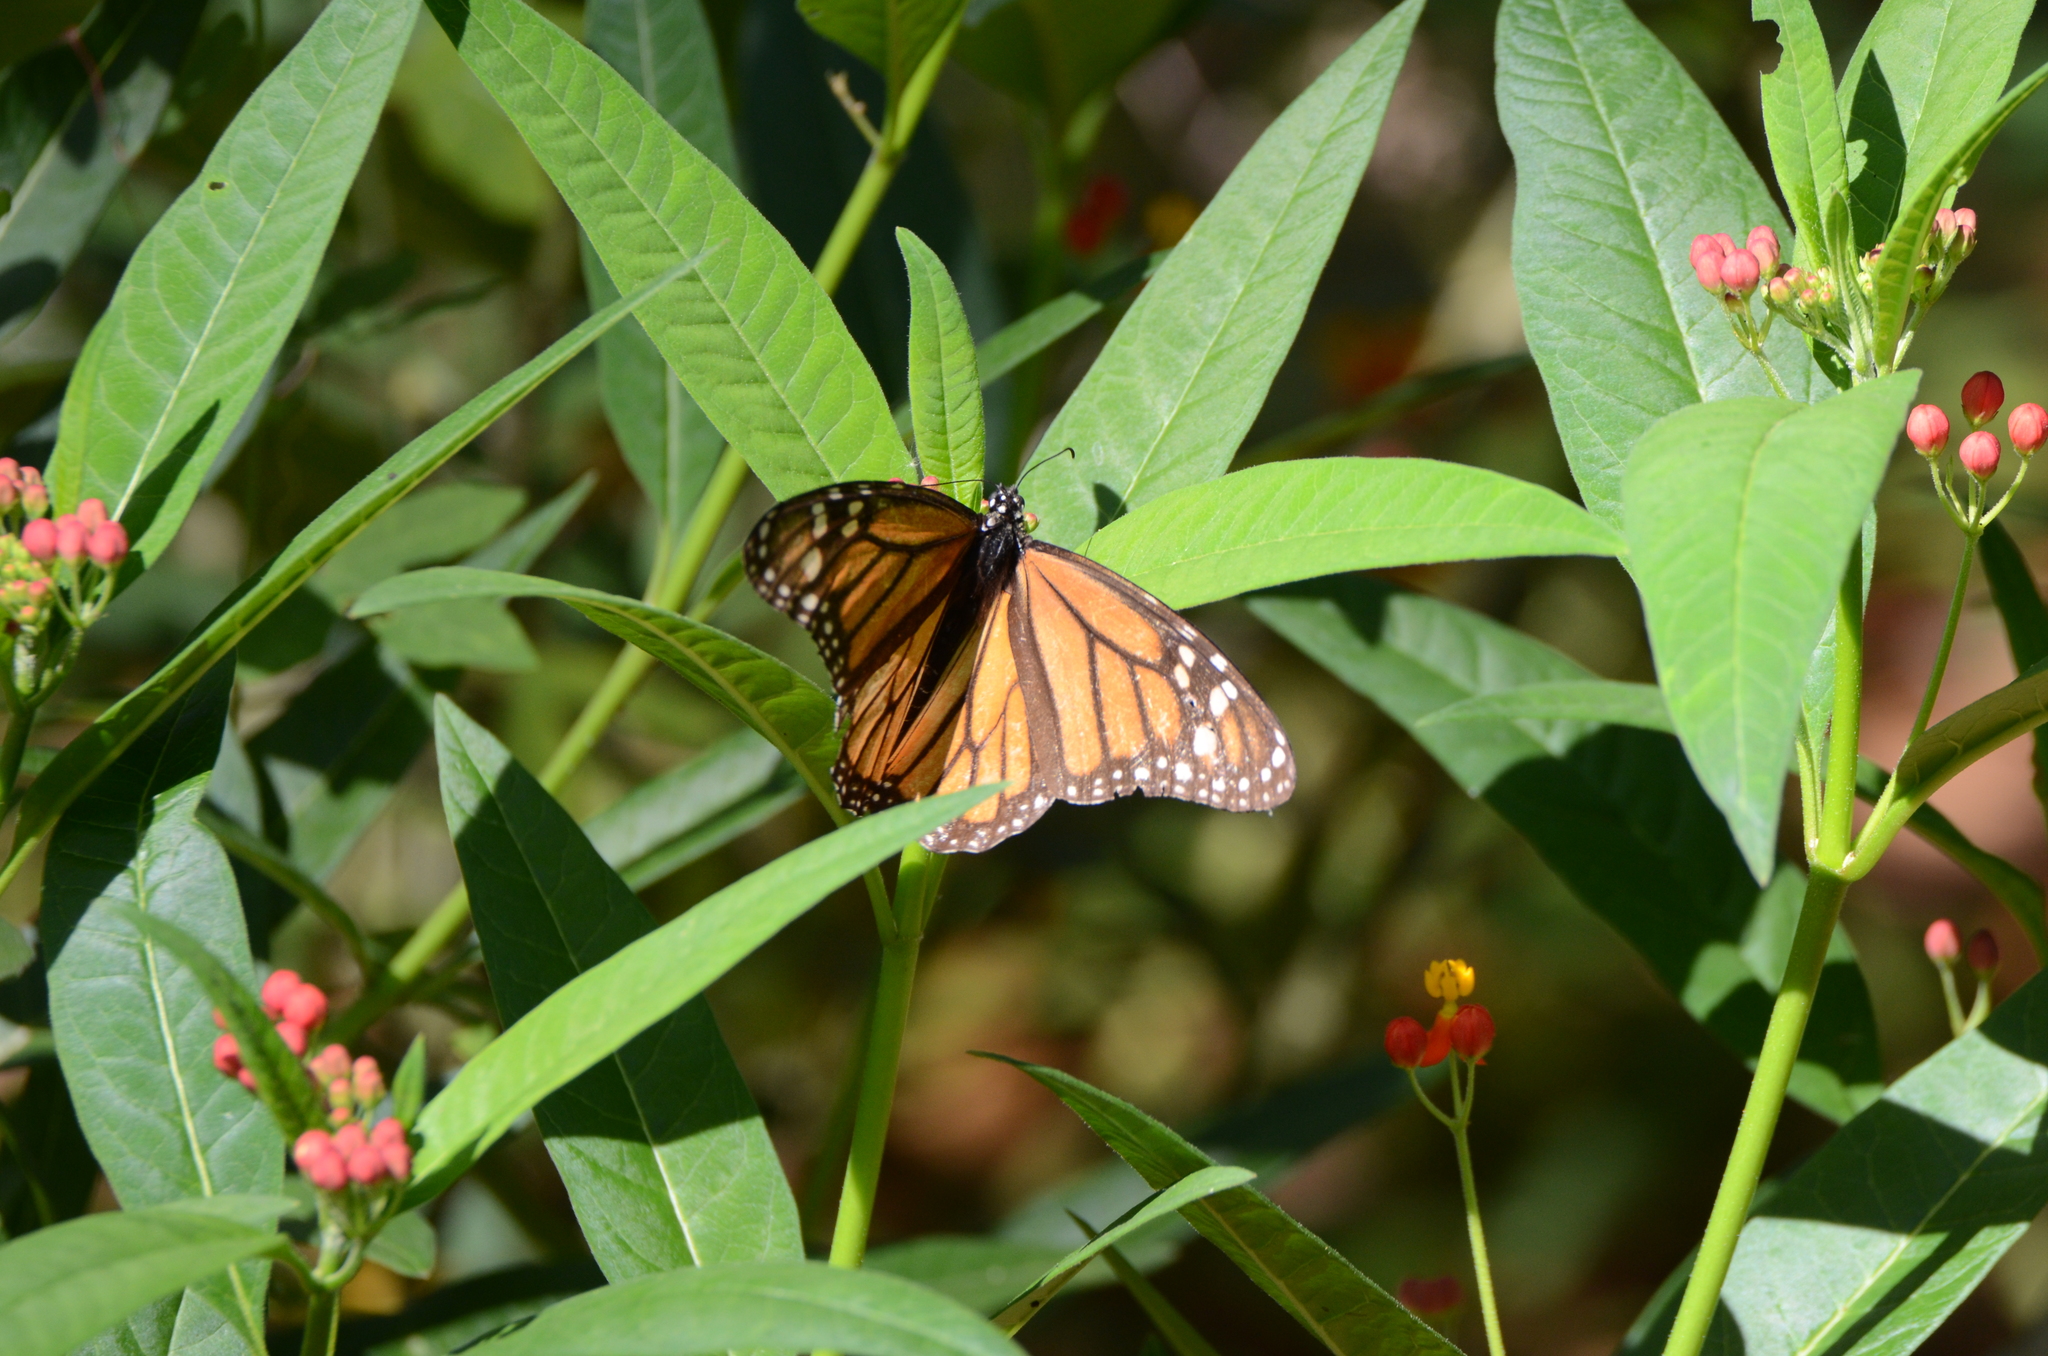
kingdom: Animalia
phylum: Arthropoda
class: Insecta
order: Lepidoptera
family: Nymphalidae
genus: Danaus
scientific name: Danaus plexippus
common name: Monarch
